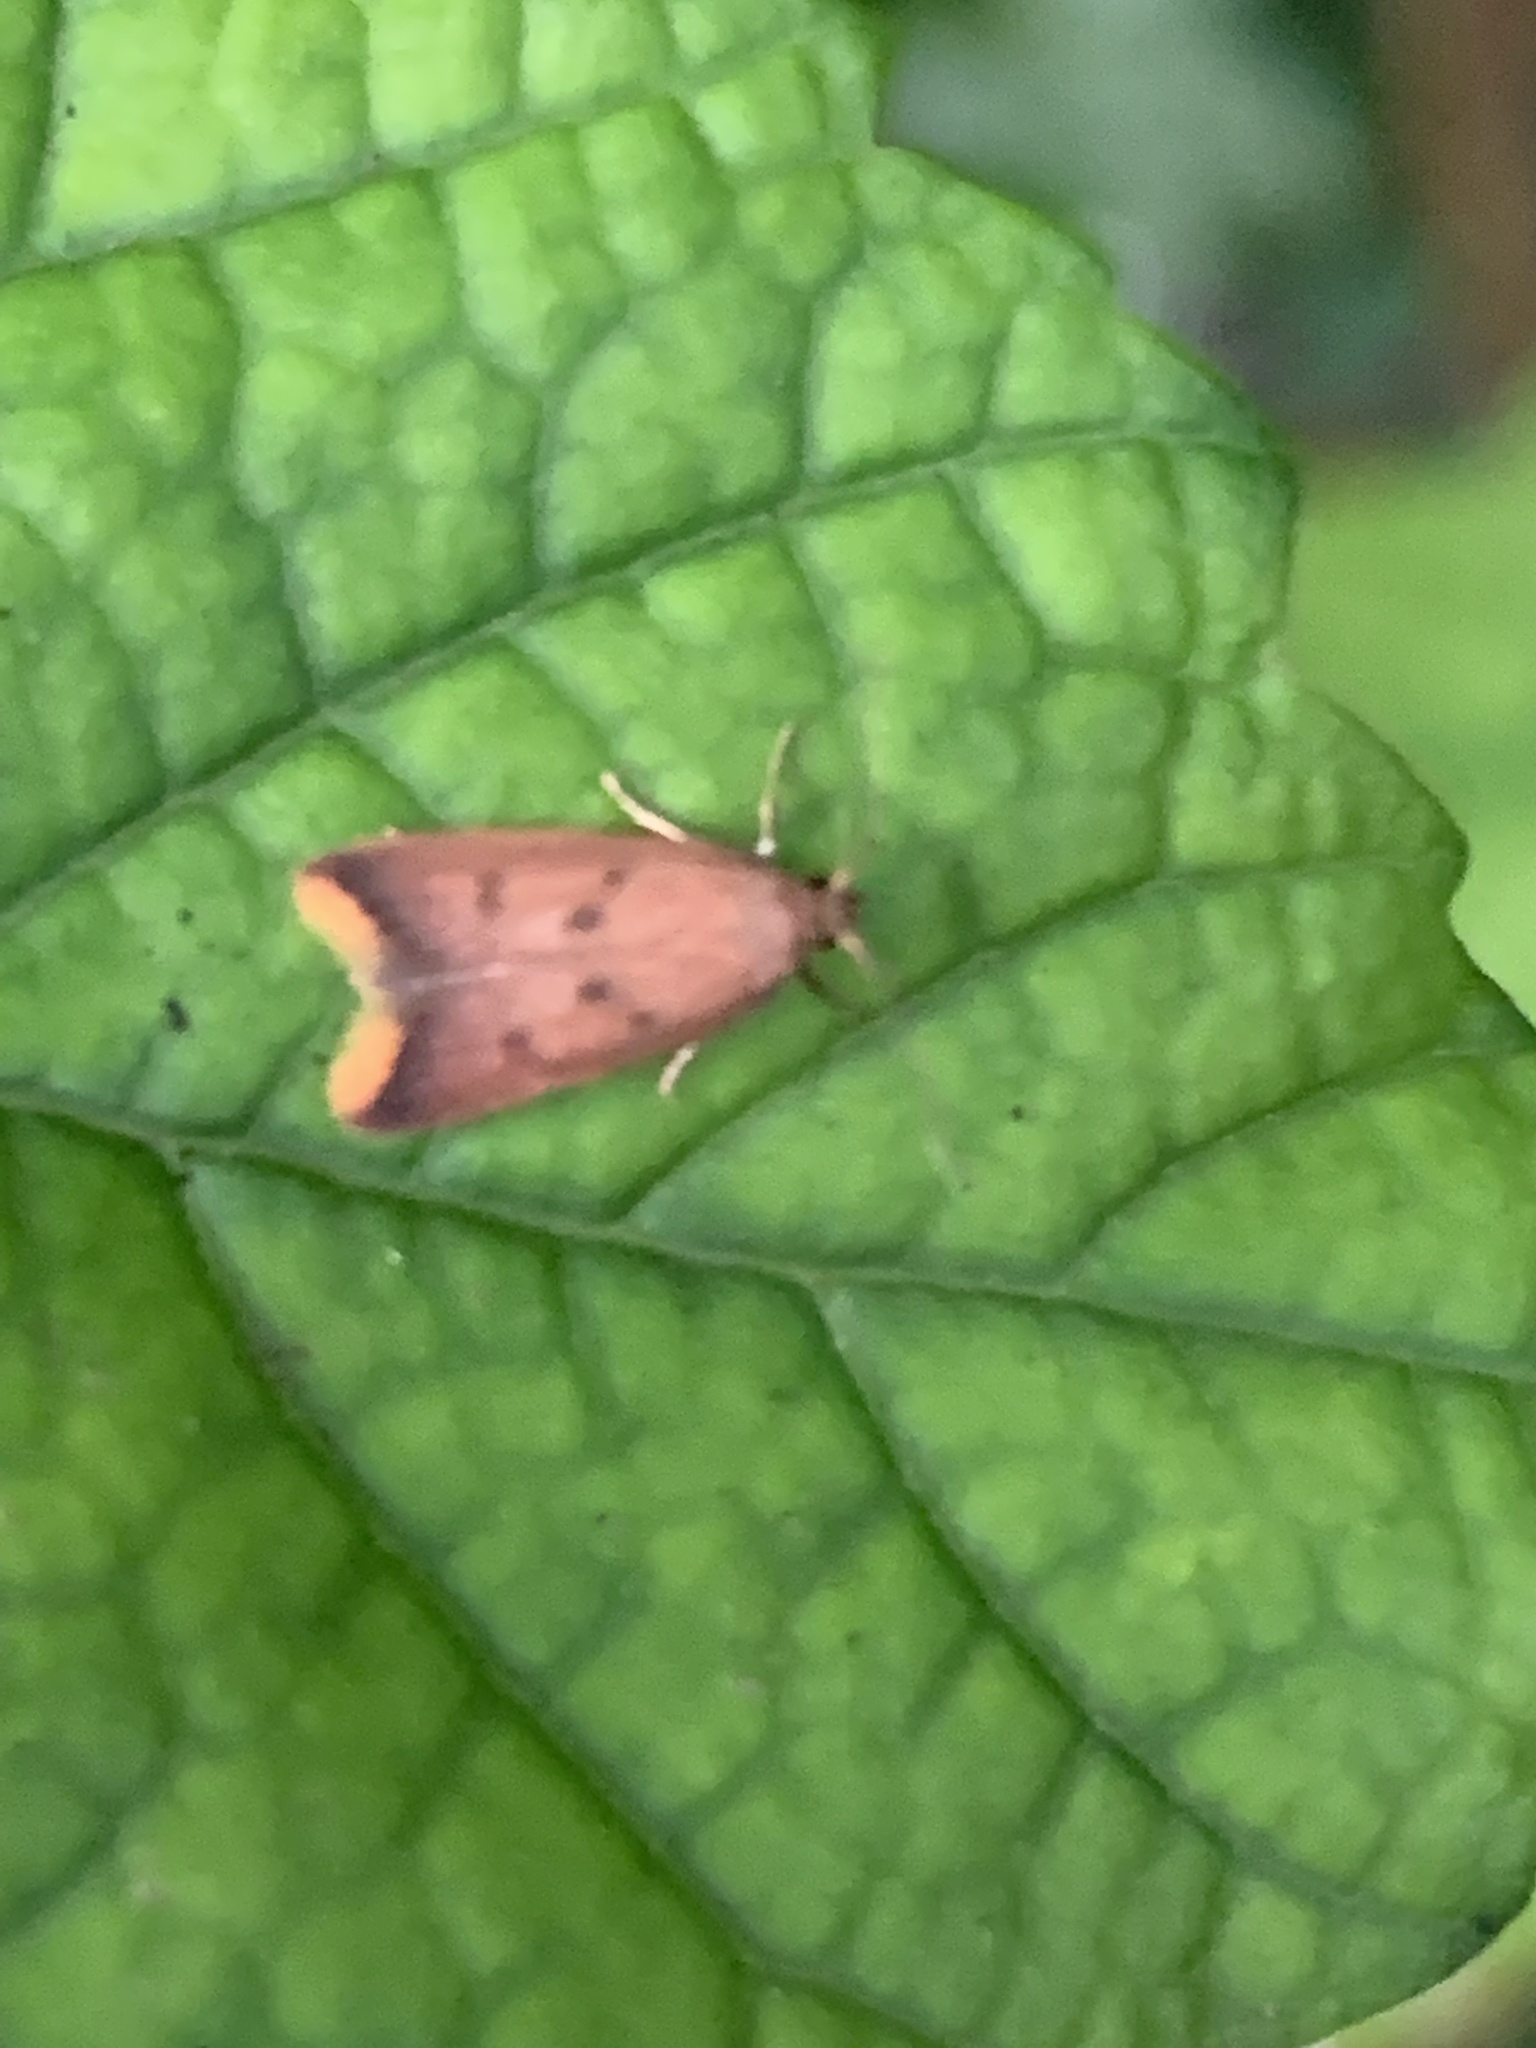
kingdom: Animalia
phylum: Arthropoda
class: Insecta
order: Lepidoptera
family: Oecophoridae
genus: Tachystola
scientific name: Tachystola acroxantha
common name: Ruddy streak
